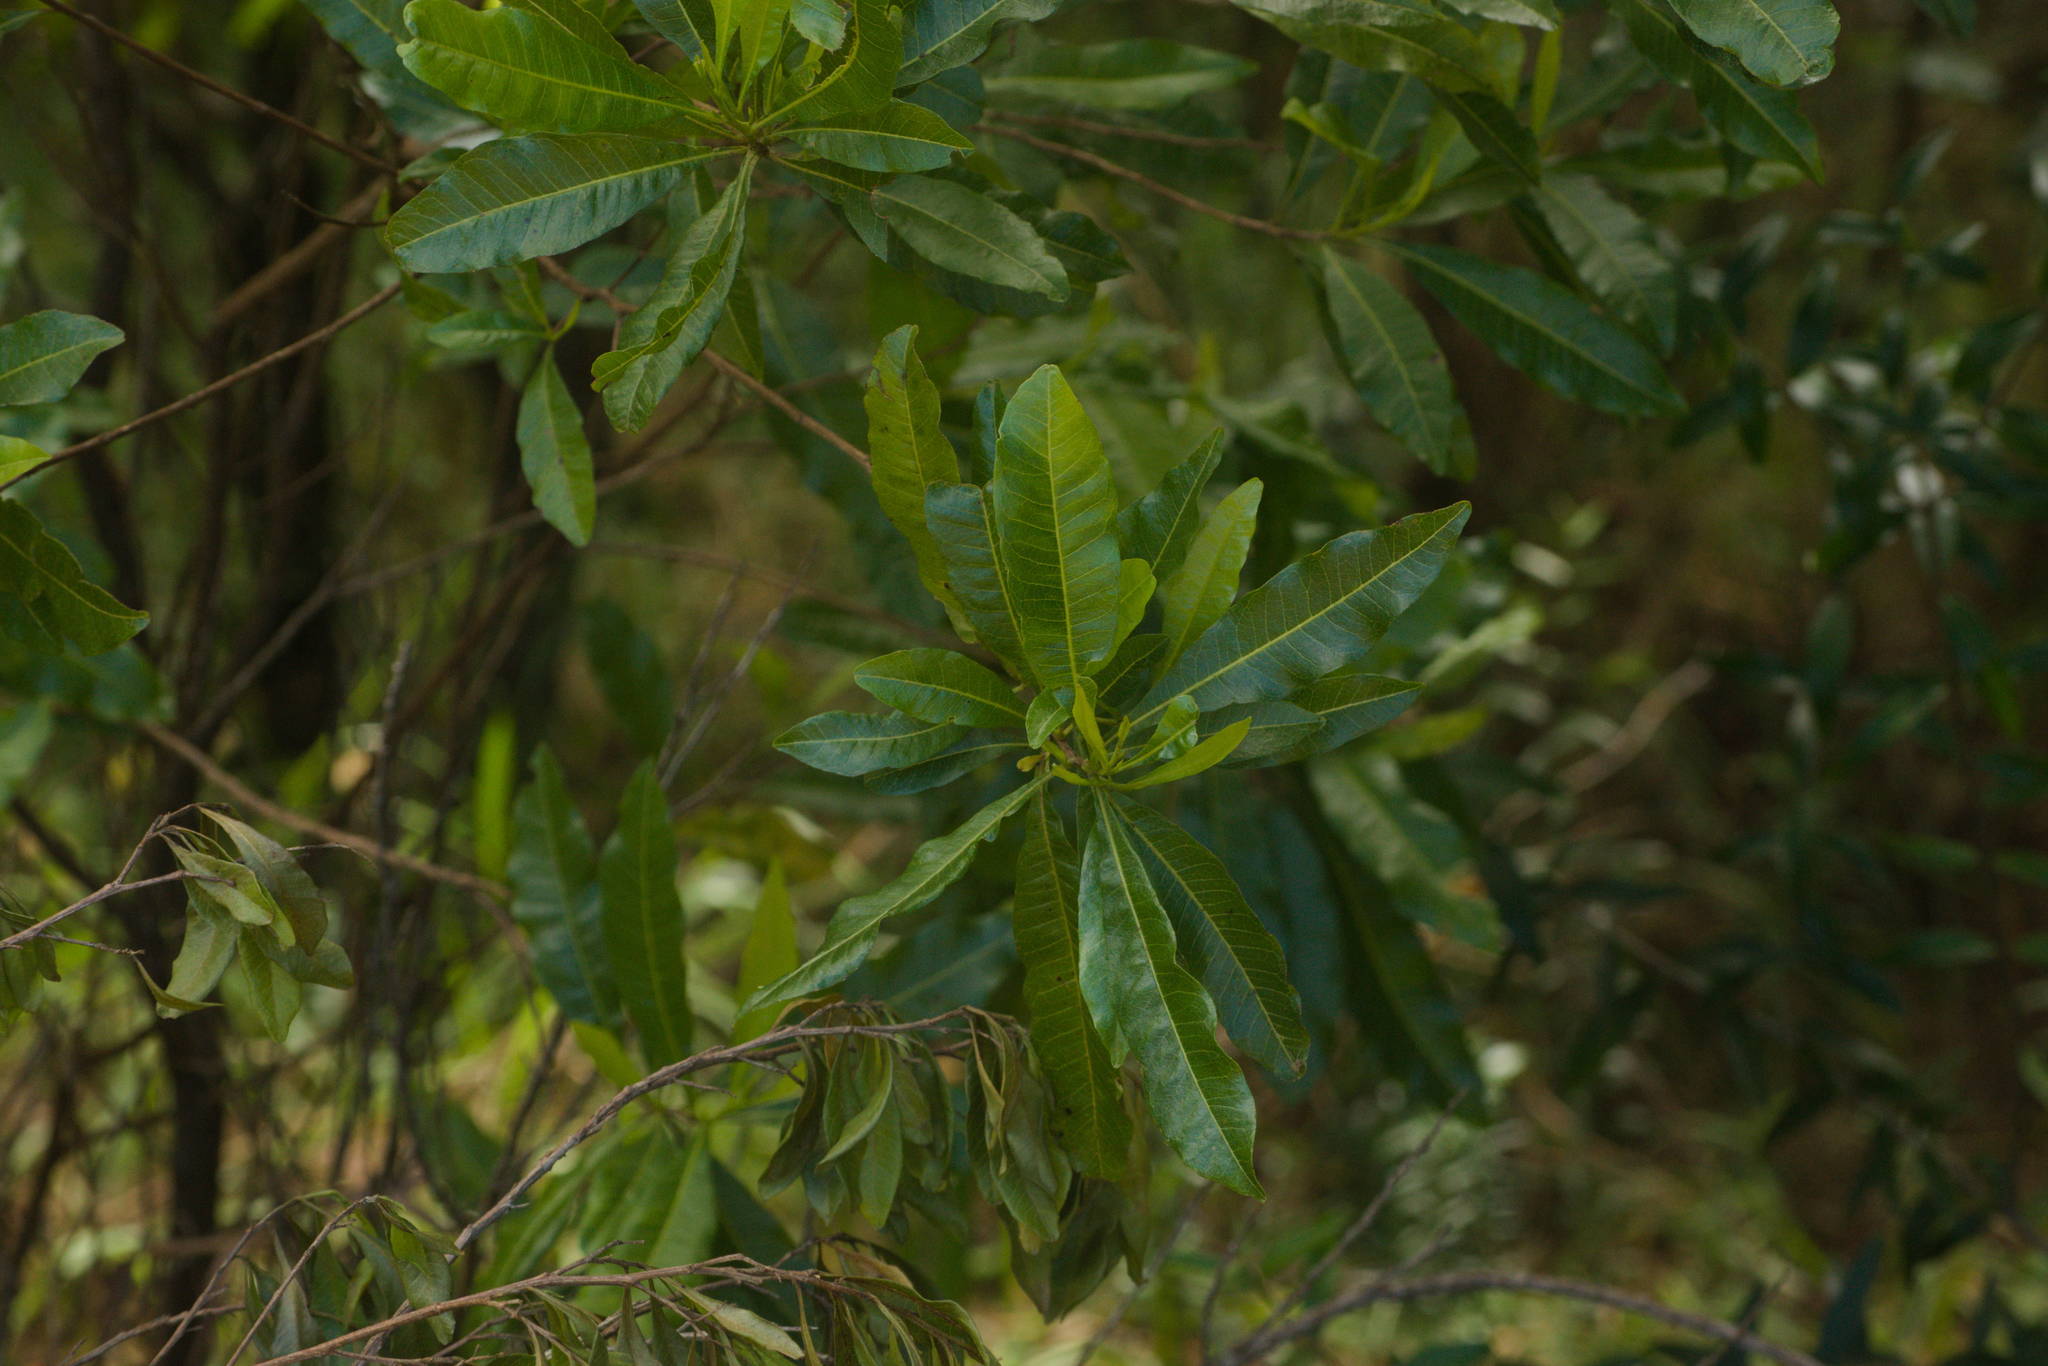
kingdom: Plantae
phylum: Tracheophyta
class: Magnoliopsida
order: Sapindales
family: Sapindaceae
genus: Dodonaea
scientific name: Dodonaea viscosa
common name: Hopbush
